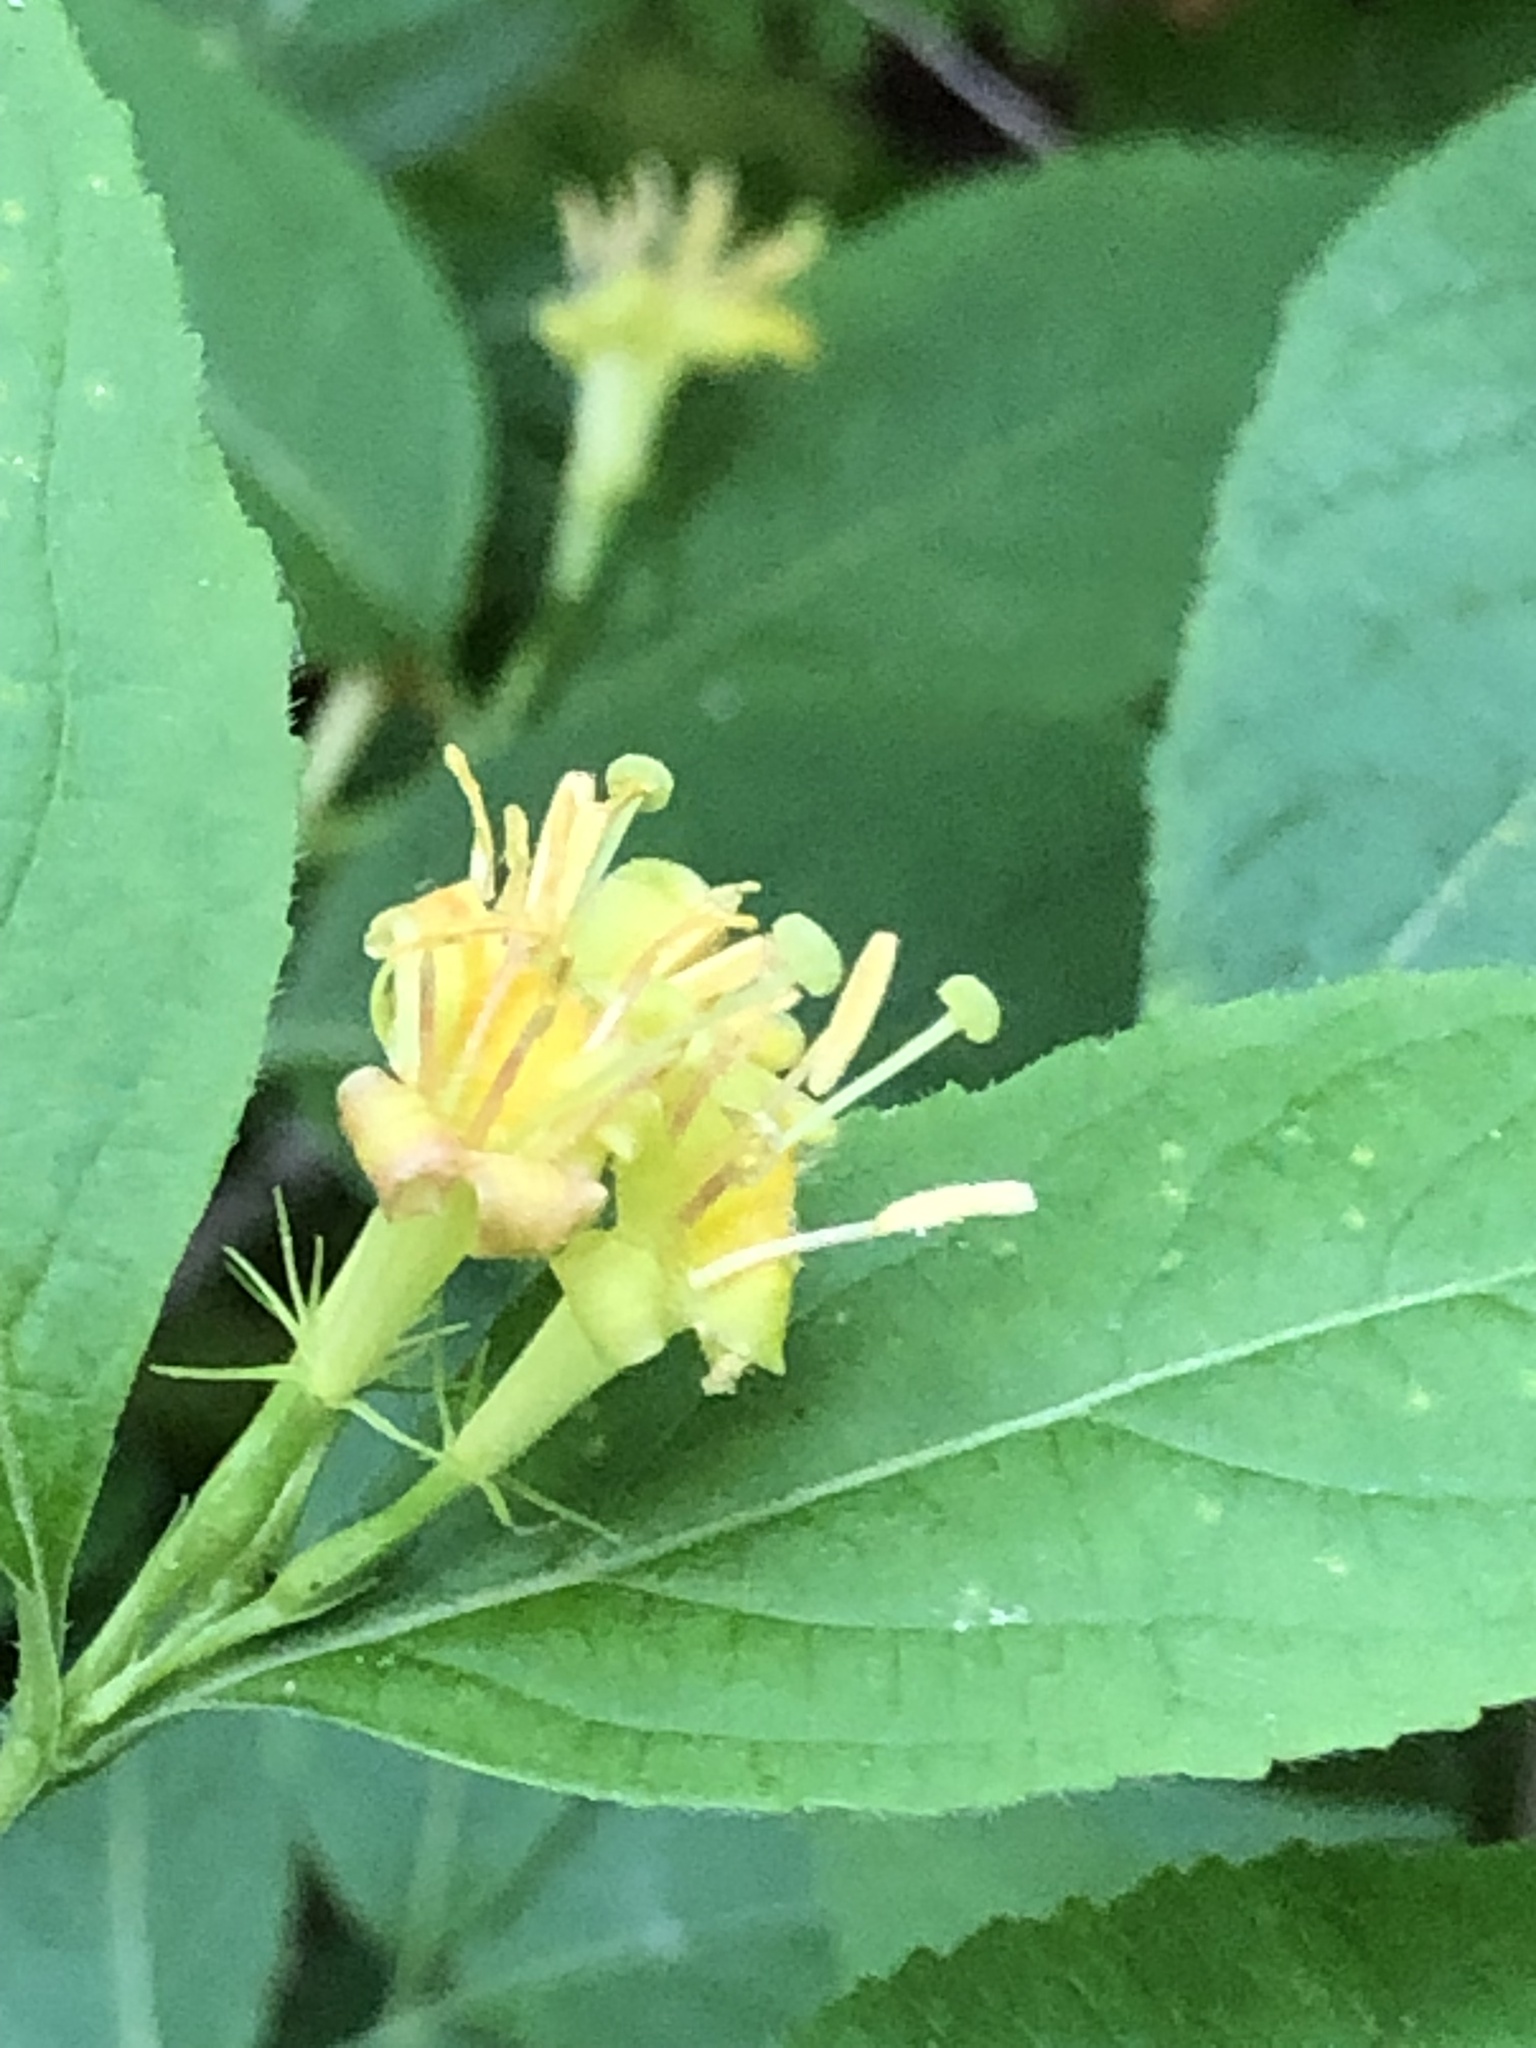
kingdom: Plantae
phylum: Tracheophyta
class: Magnoliopsida
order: Dipsacales
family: Caprifoliaceae
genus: Diervilla
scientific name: Diervilla lonicera
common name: Bush-honeysuckle
